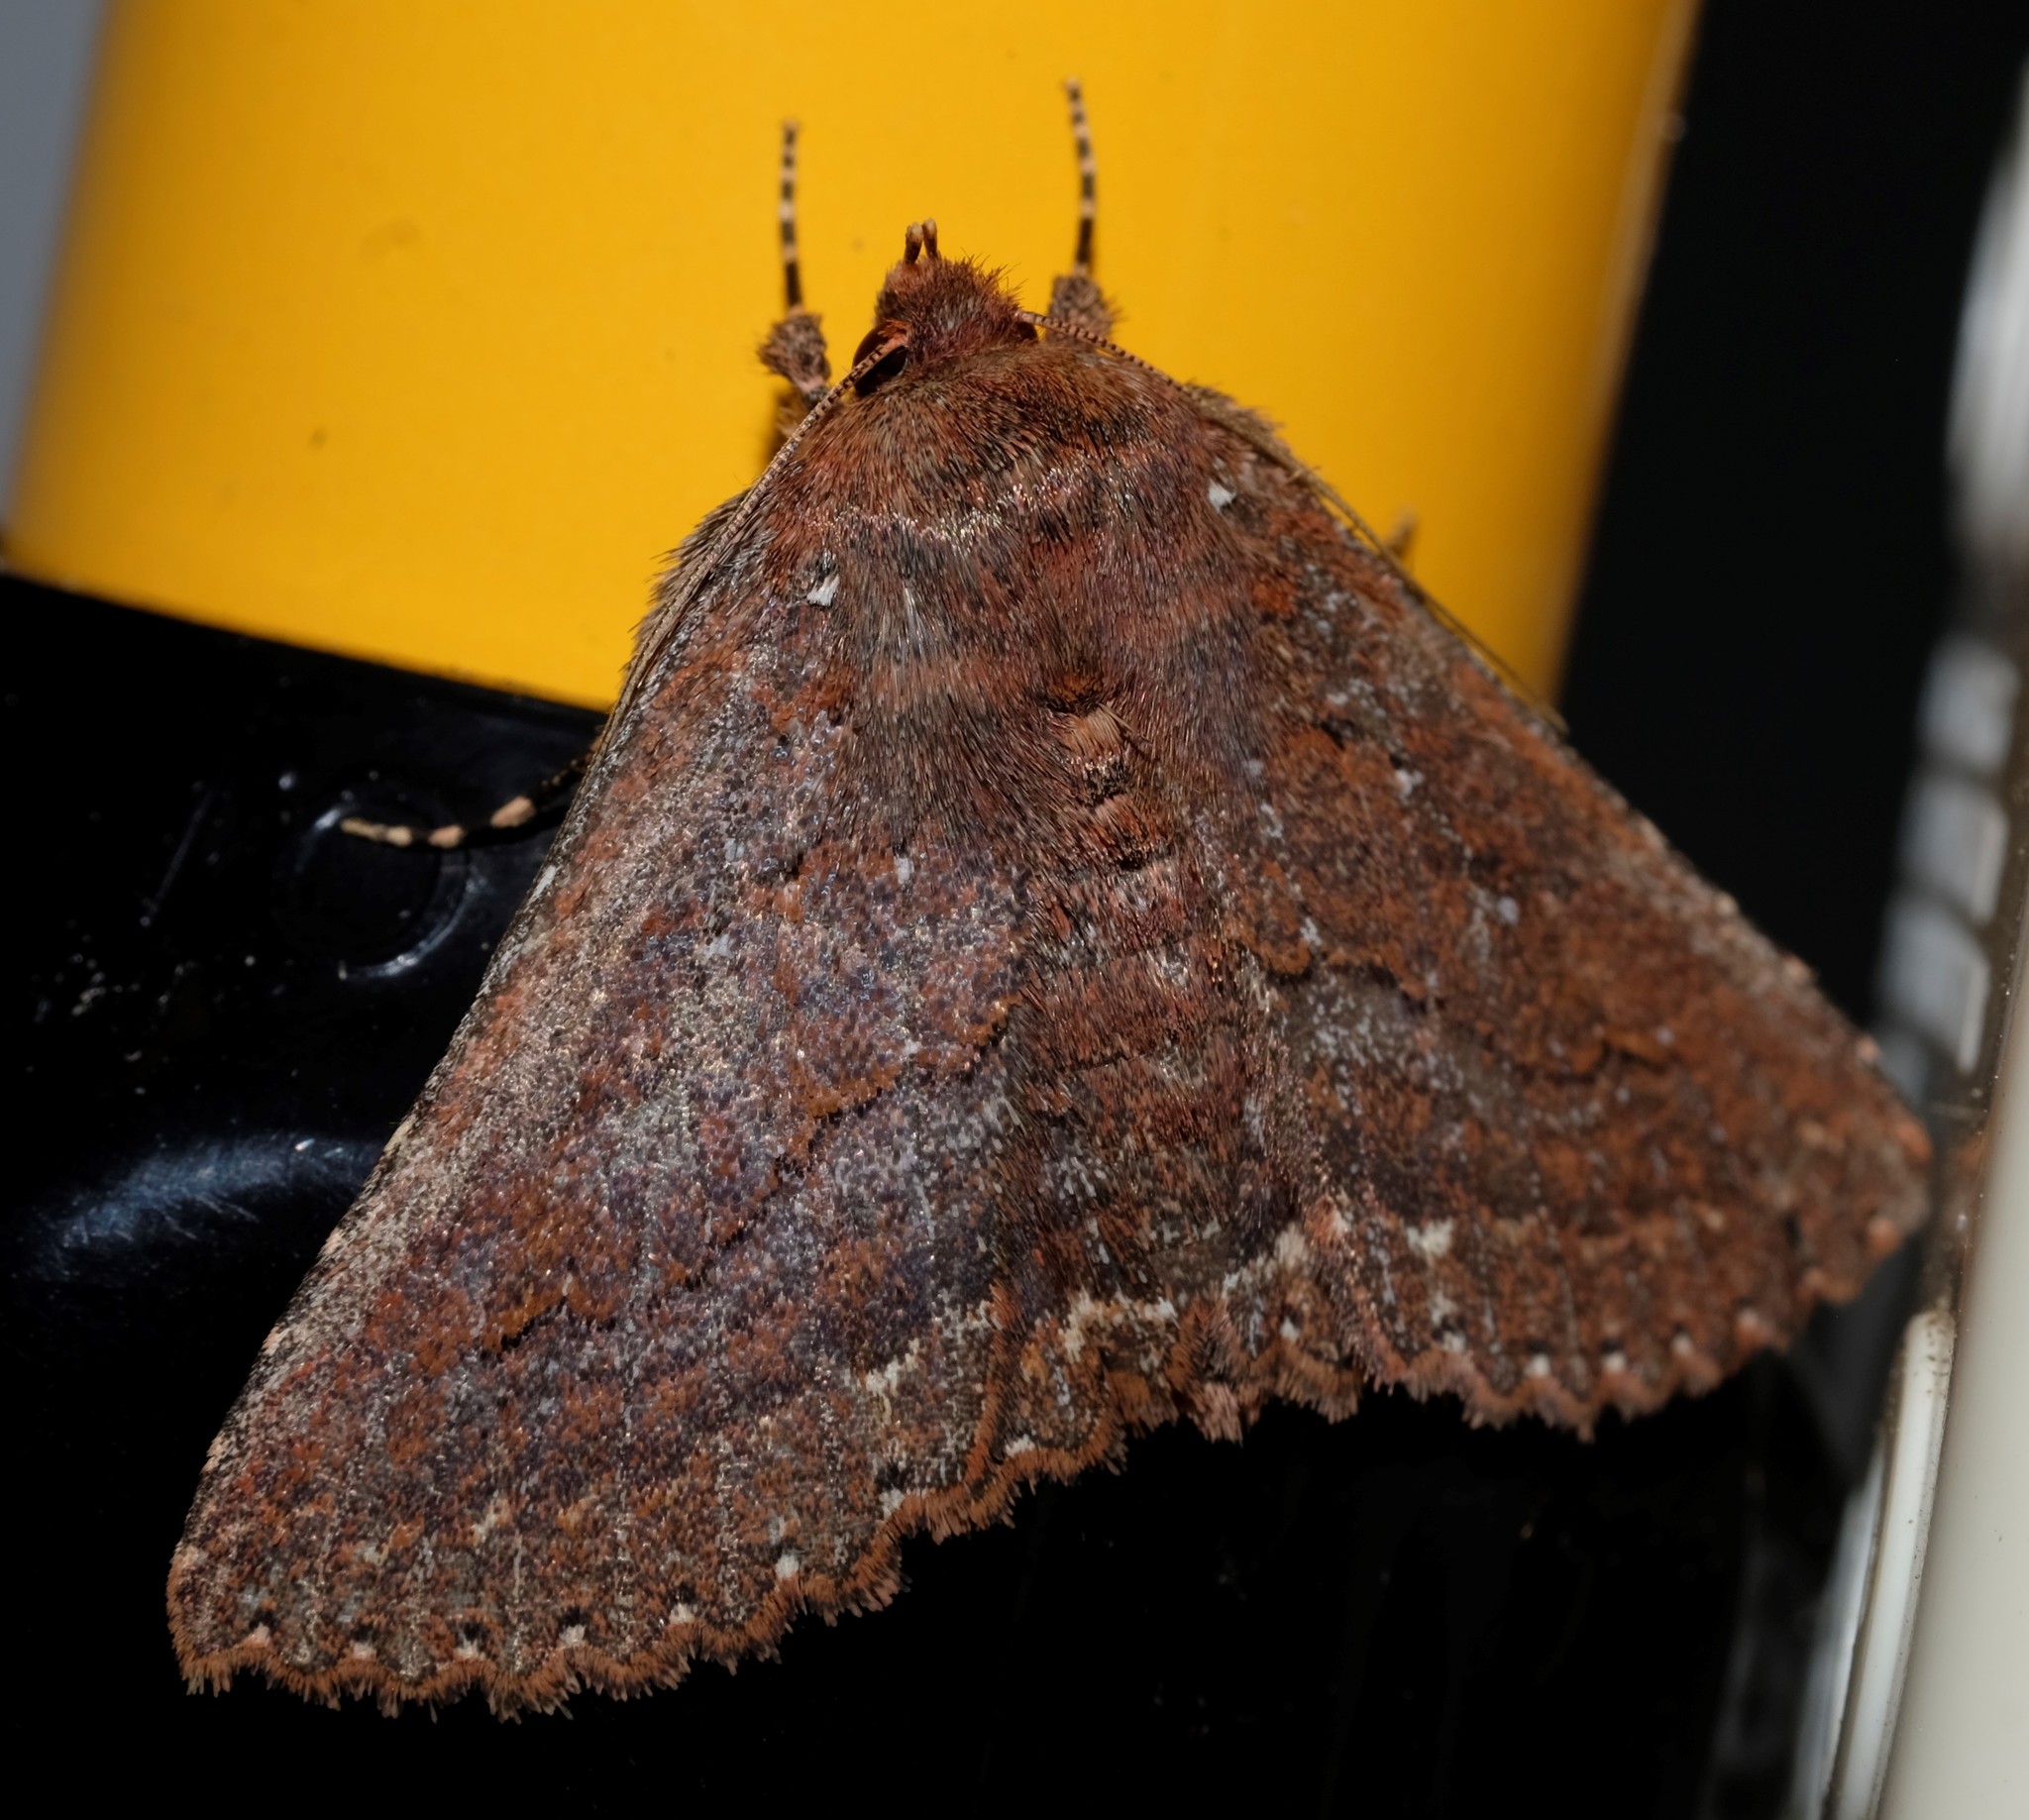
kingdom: Animalia
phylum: Arthropoda
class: Insecta
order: Lepidoptera
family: Erebidae
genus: Praxis
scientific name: Praxis porphyretica
